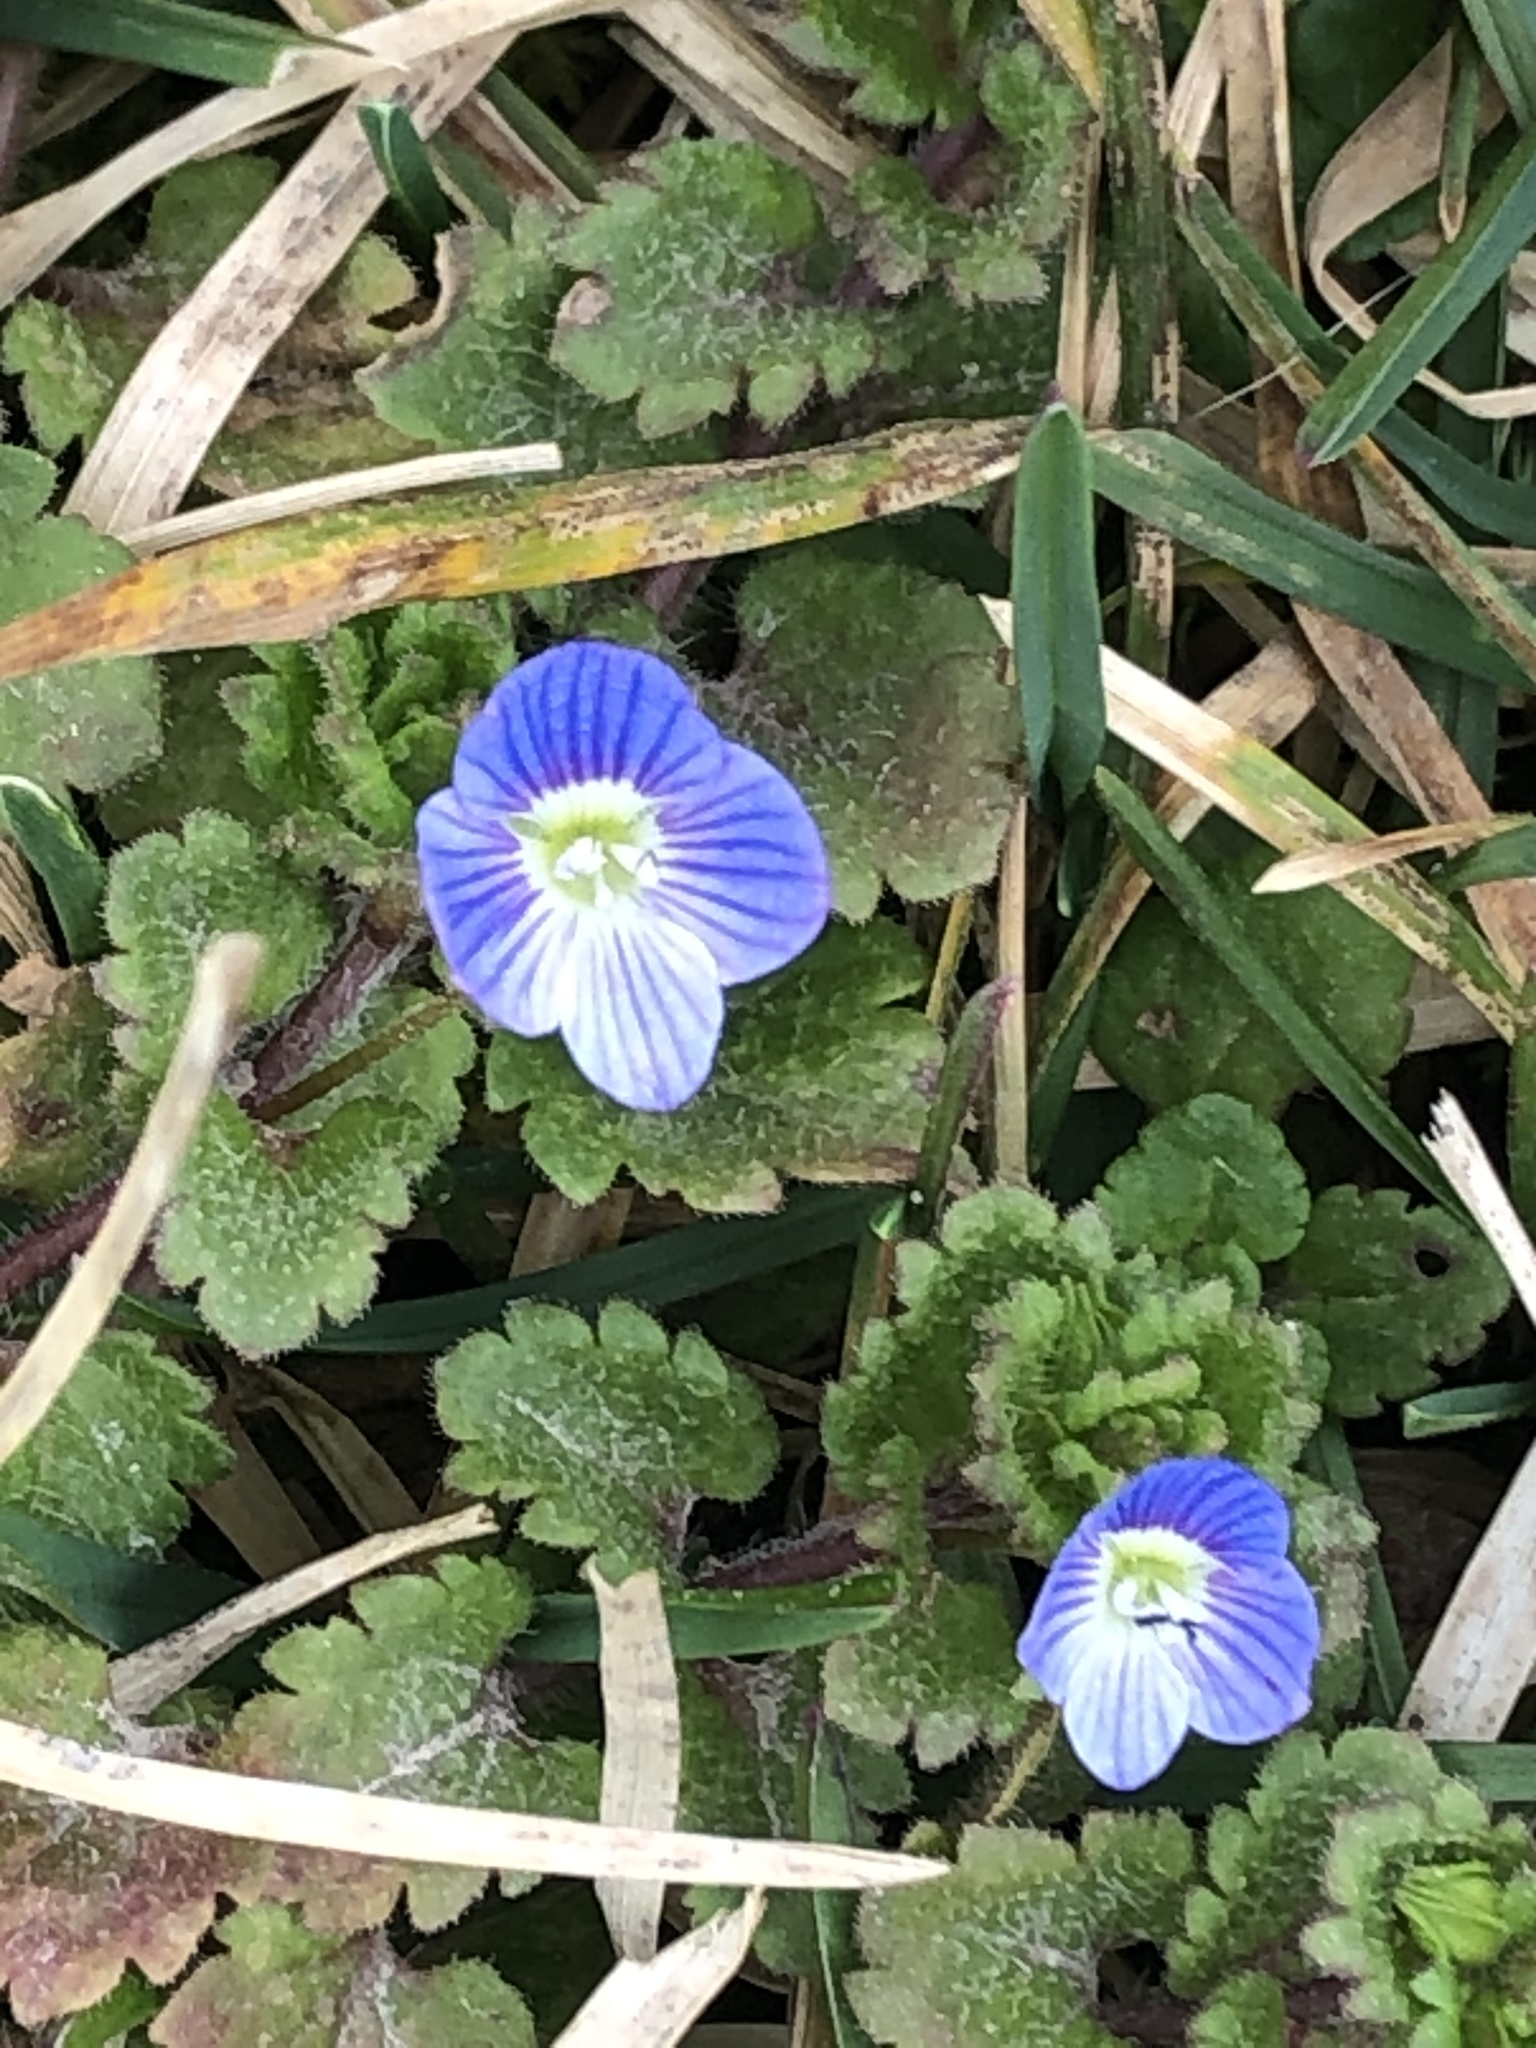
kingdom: Plantae
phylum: Tracheophyta
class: Magnoliopsida
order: Lamiales
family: Plantaginaceae
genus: Veronica
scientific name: Veronica persica
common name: Common field-speedwell
